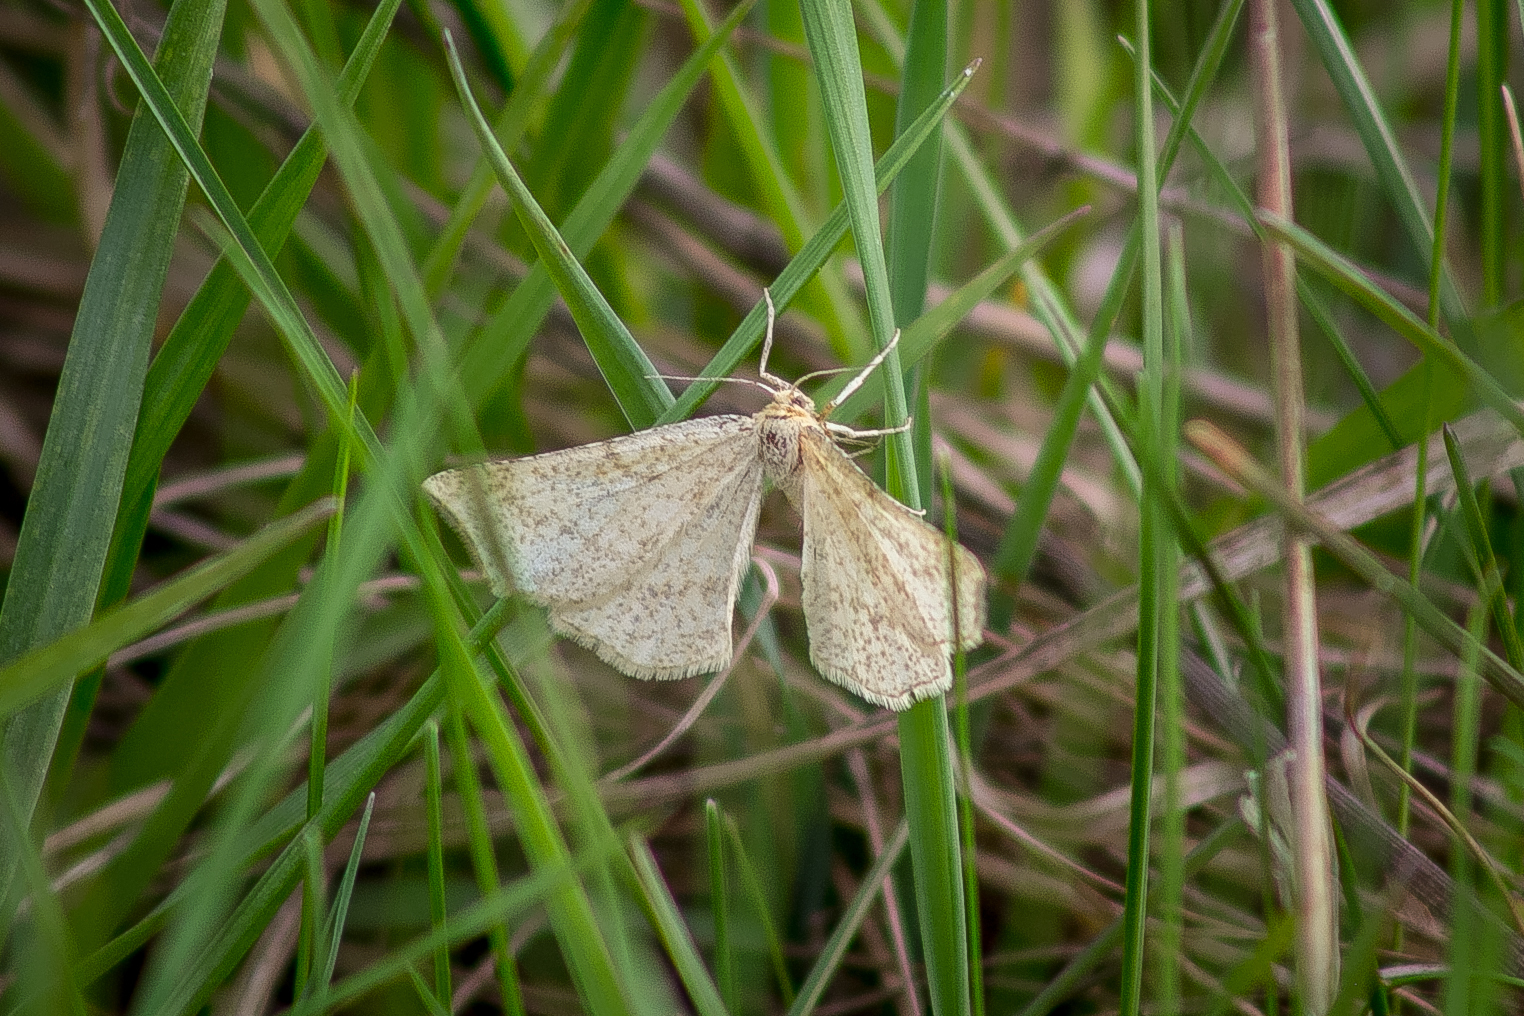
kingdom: Animalia
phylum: Arthropoda
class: Insecta
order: Lepidoptera
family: Geometridae
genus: Hypoxystis
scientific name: Hypoxystis pluviaria
